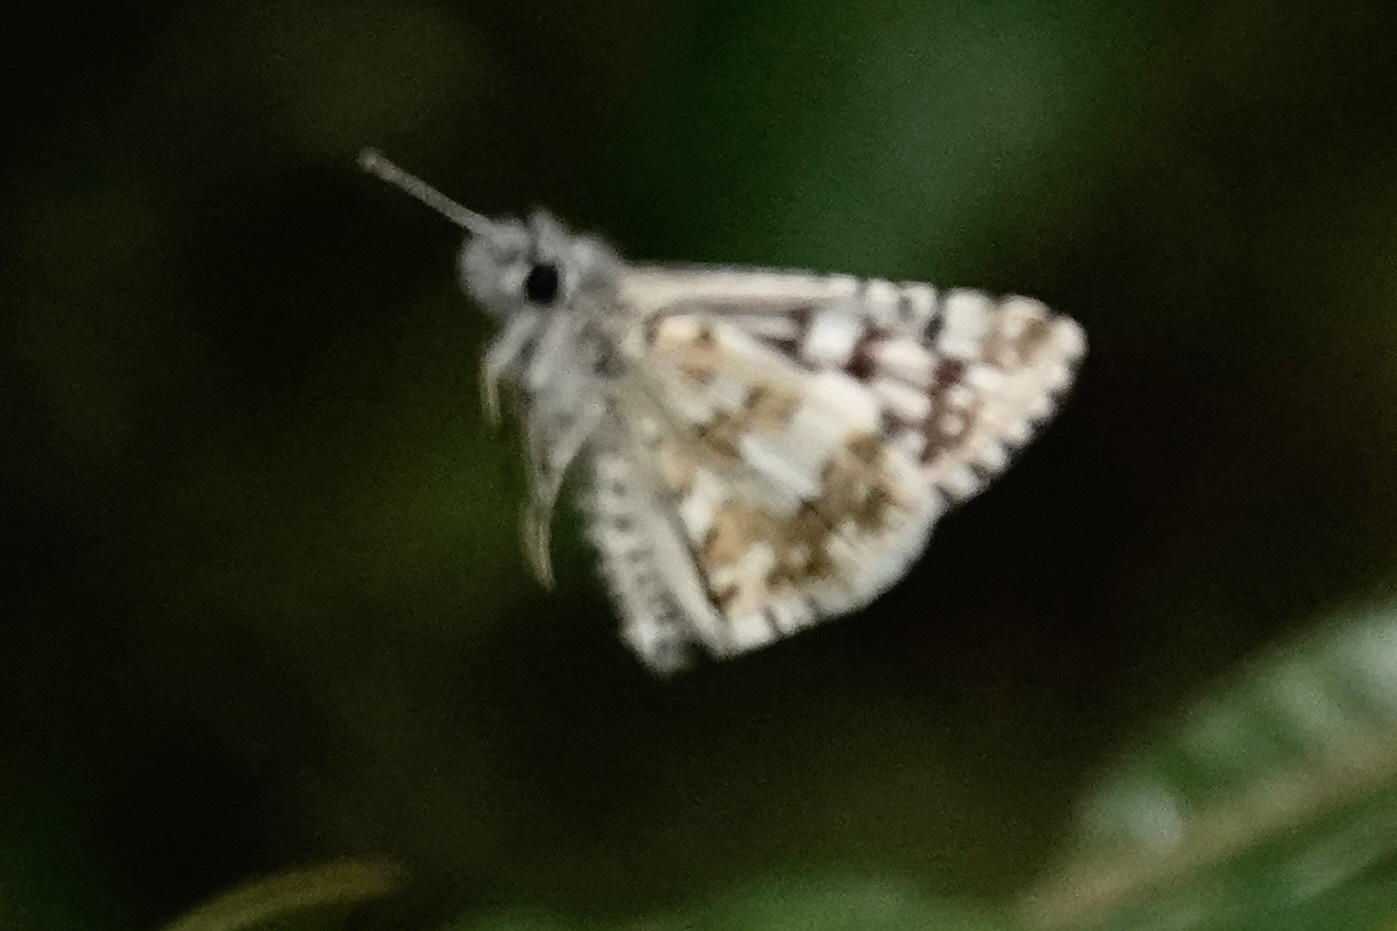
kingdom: Animalia
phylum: Arthropoda
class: Insecta
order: Lepidoptera
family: Hesperiidae
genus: Burnsius
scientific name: Burnsius communis
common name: Common checkered-skipper
